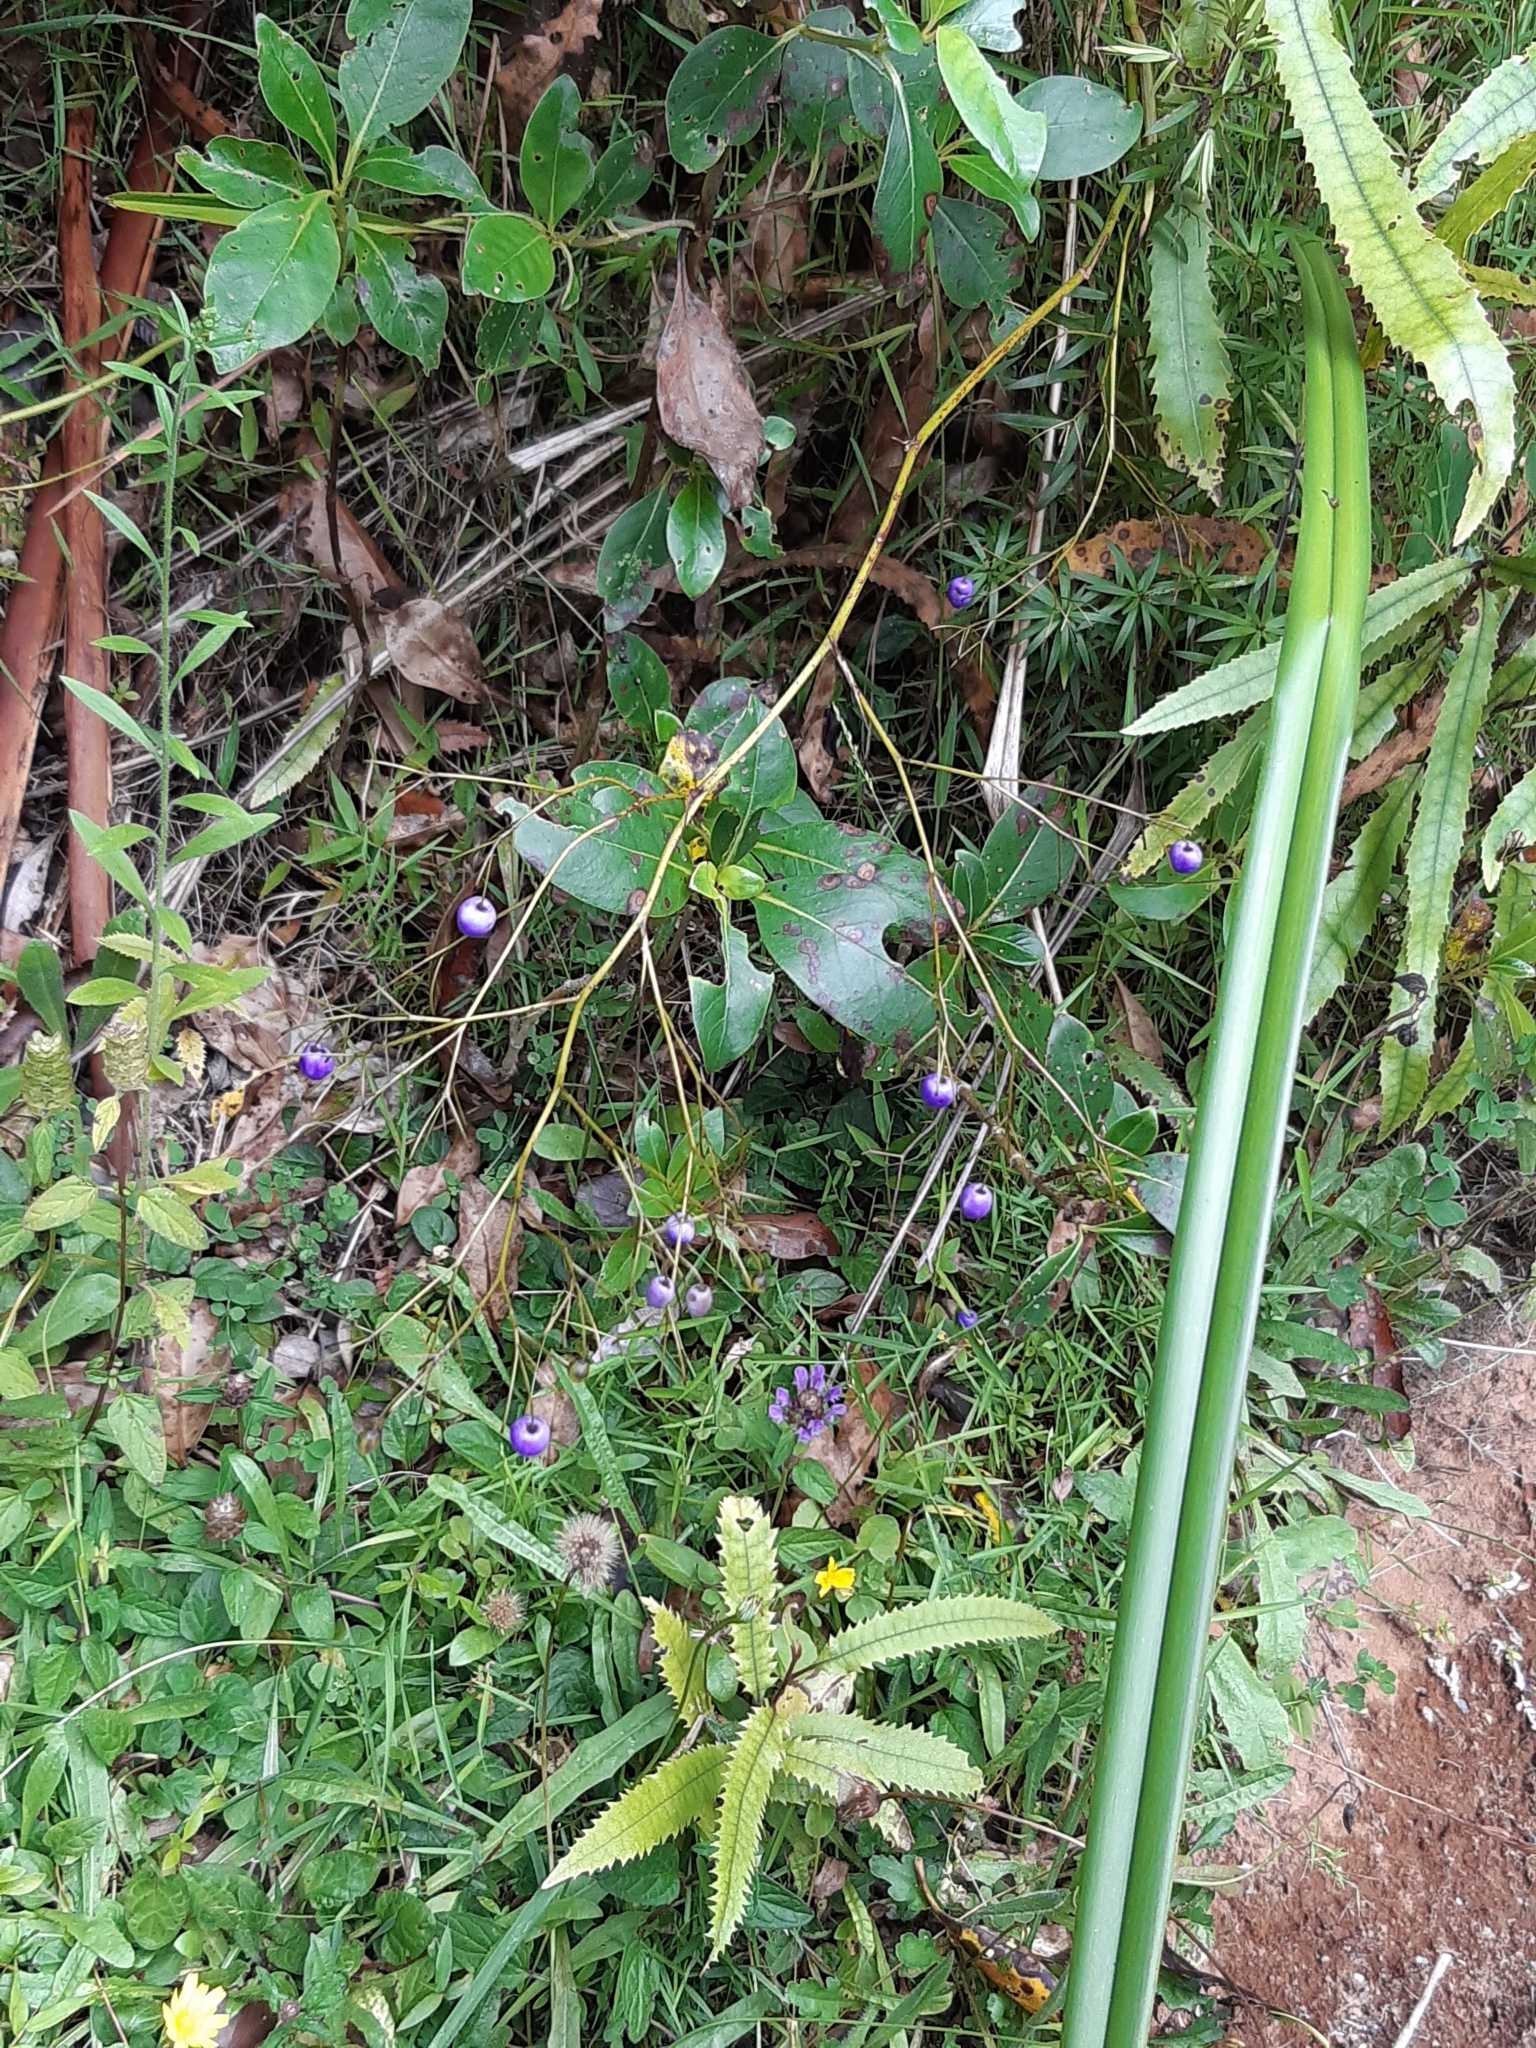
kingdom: Plantae
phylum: Tracheophyta
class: Liliopsida
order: Asparagales
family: Asphodelaceae
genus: Dianella
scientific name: Dianella nigra
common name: New zealand-blueberry
